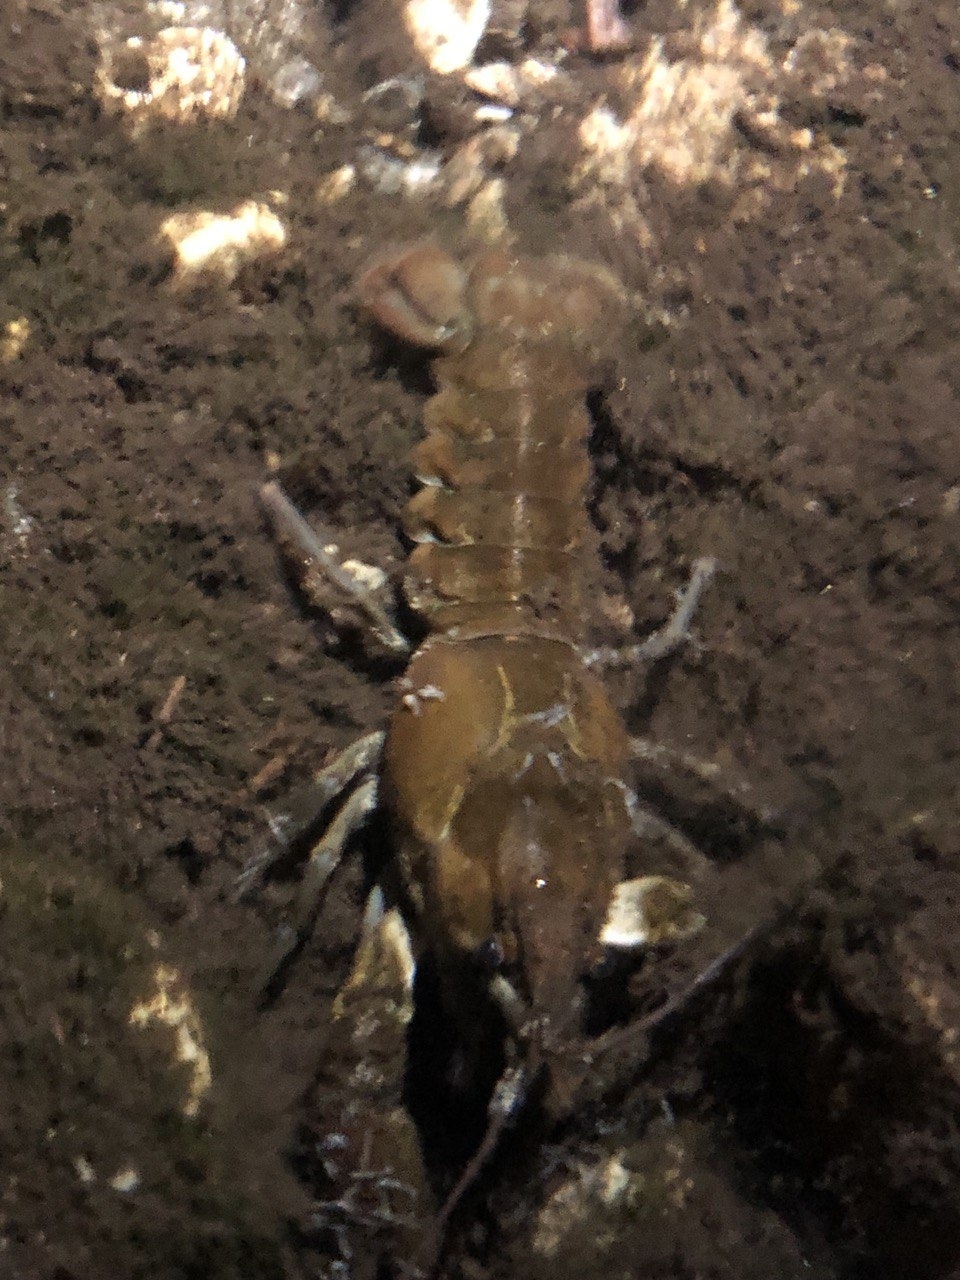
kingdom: Animalia
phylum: Arthropoda
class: Malacostraca
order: Decapoda
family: Astacidae
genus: Austropotamobius
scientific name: Austropotamobius pallipes
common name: White-clawed crayfish
